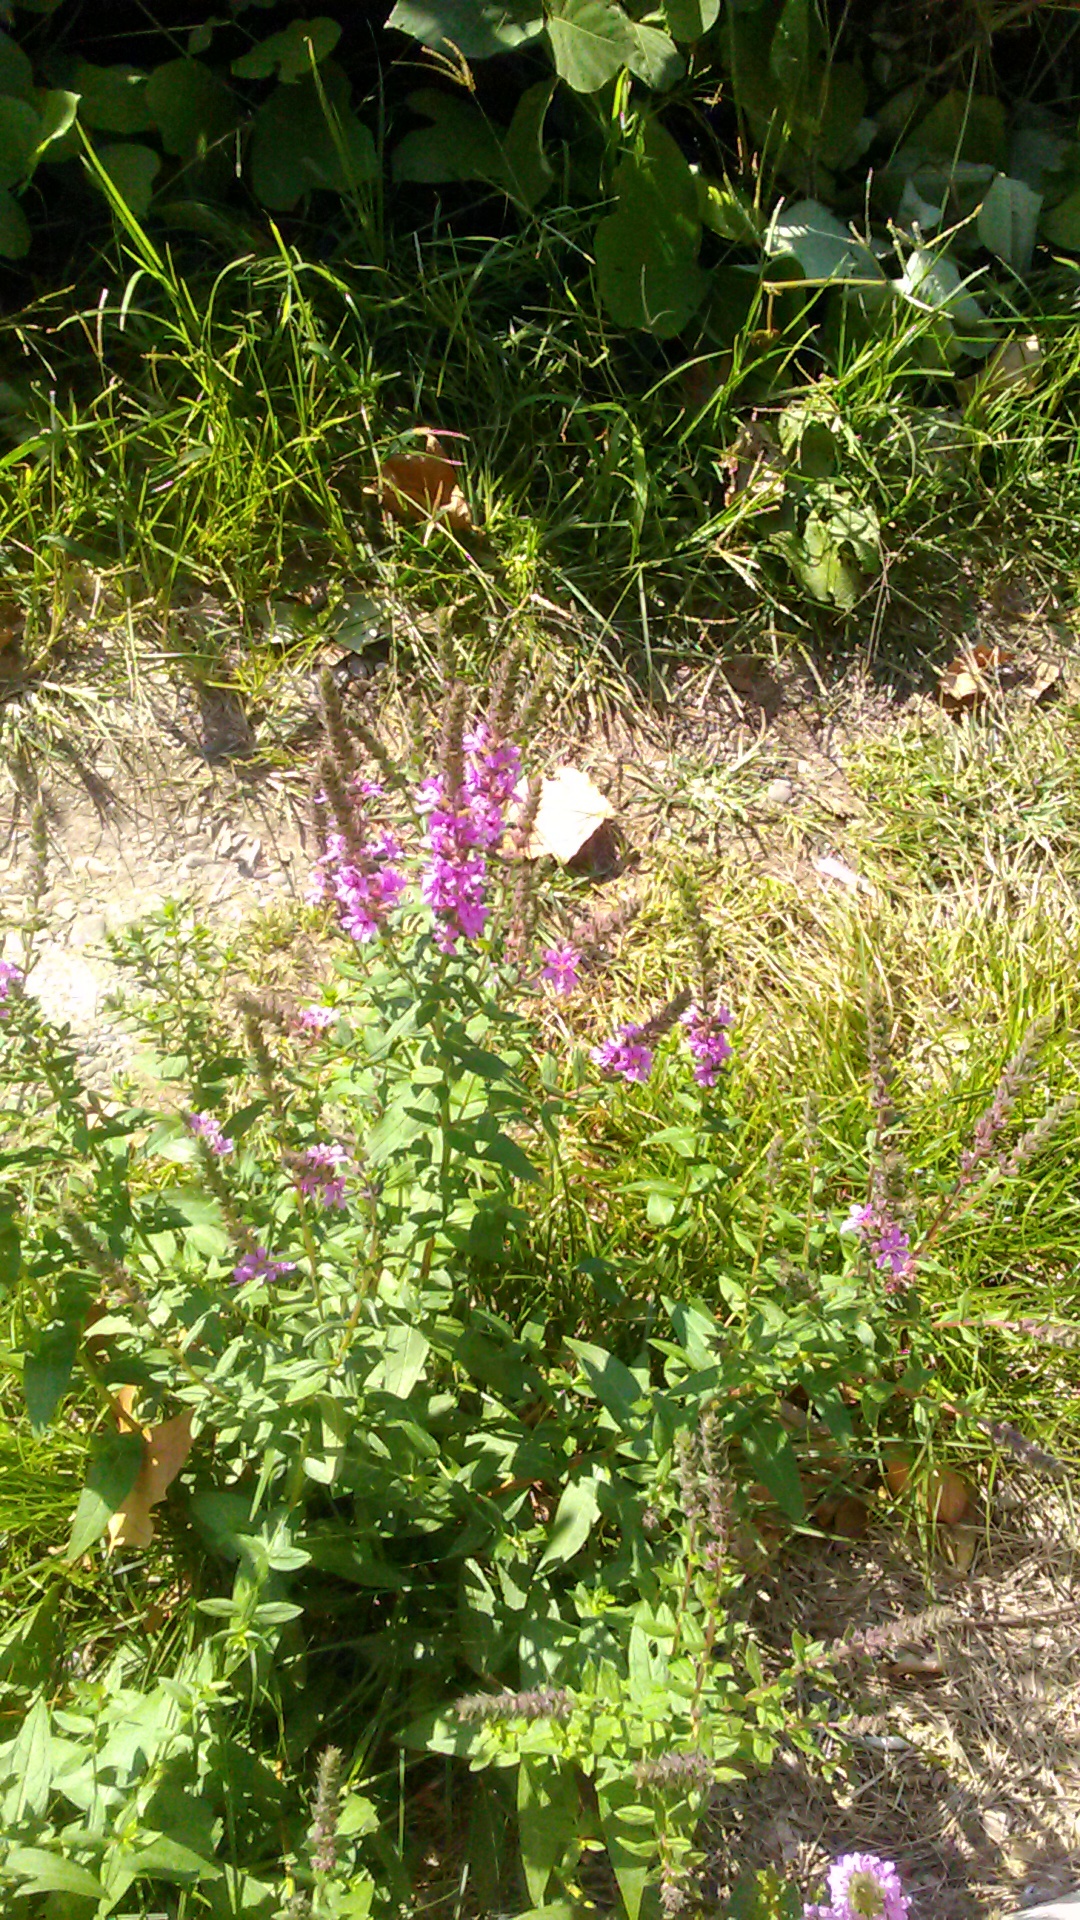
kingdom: Plantae
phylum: Tracheophyta
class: Magnoliopsida
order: Myrtales
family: Lythraceae
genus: Lythrum
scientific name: Lythrum salicaria
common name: Purple loosestrife
